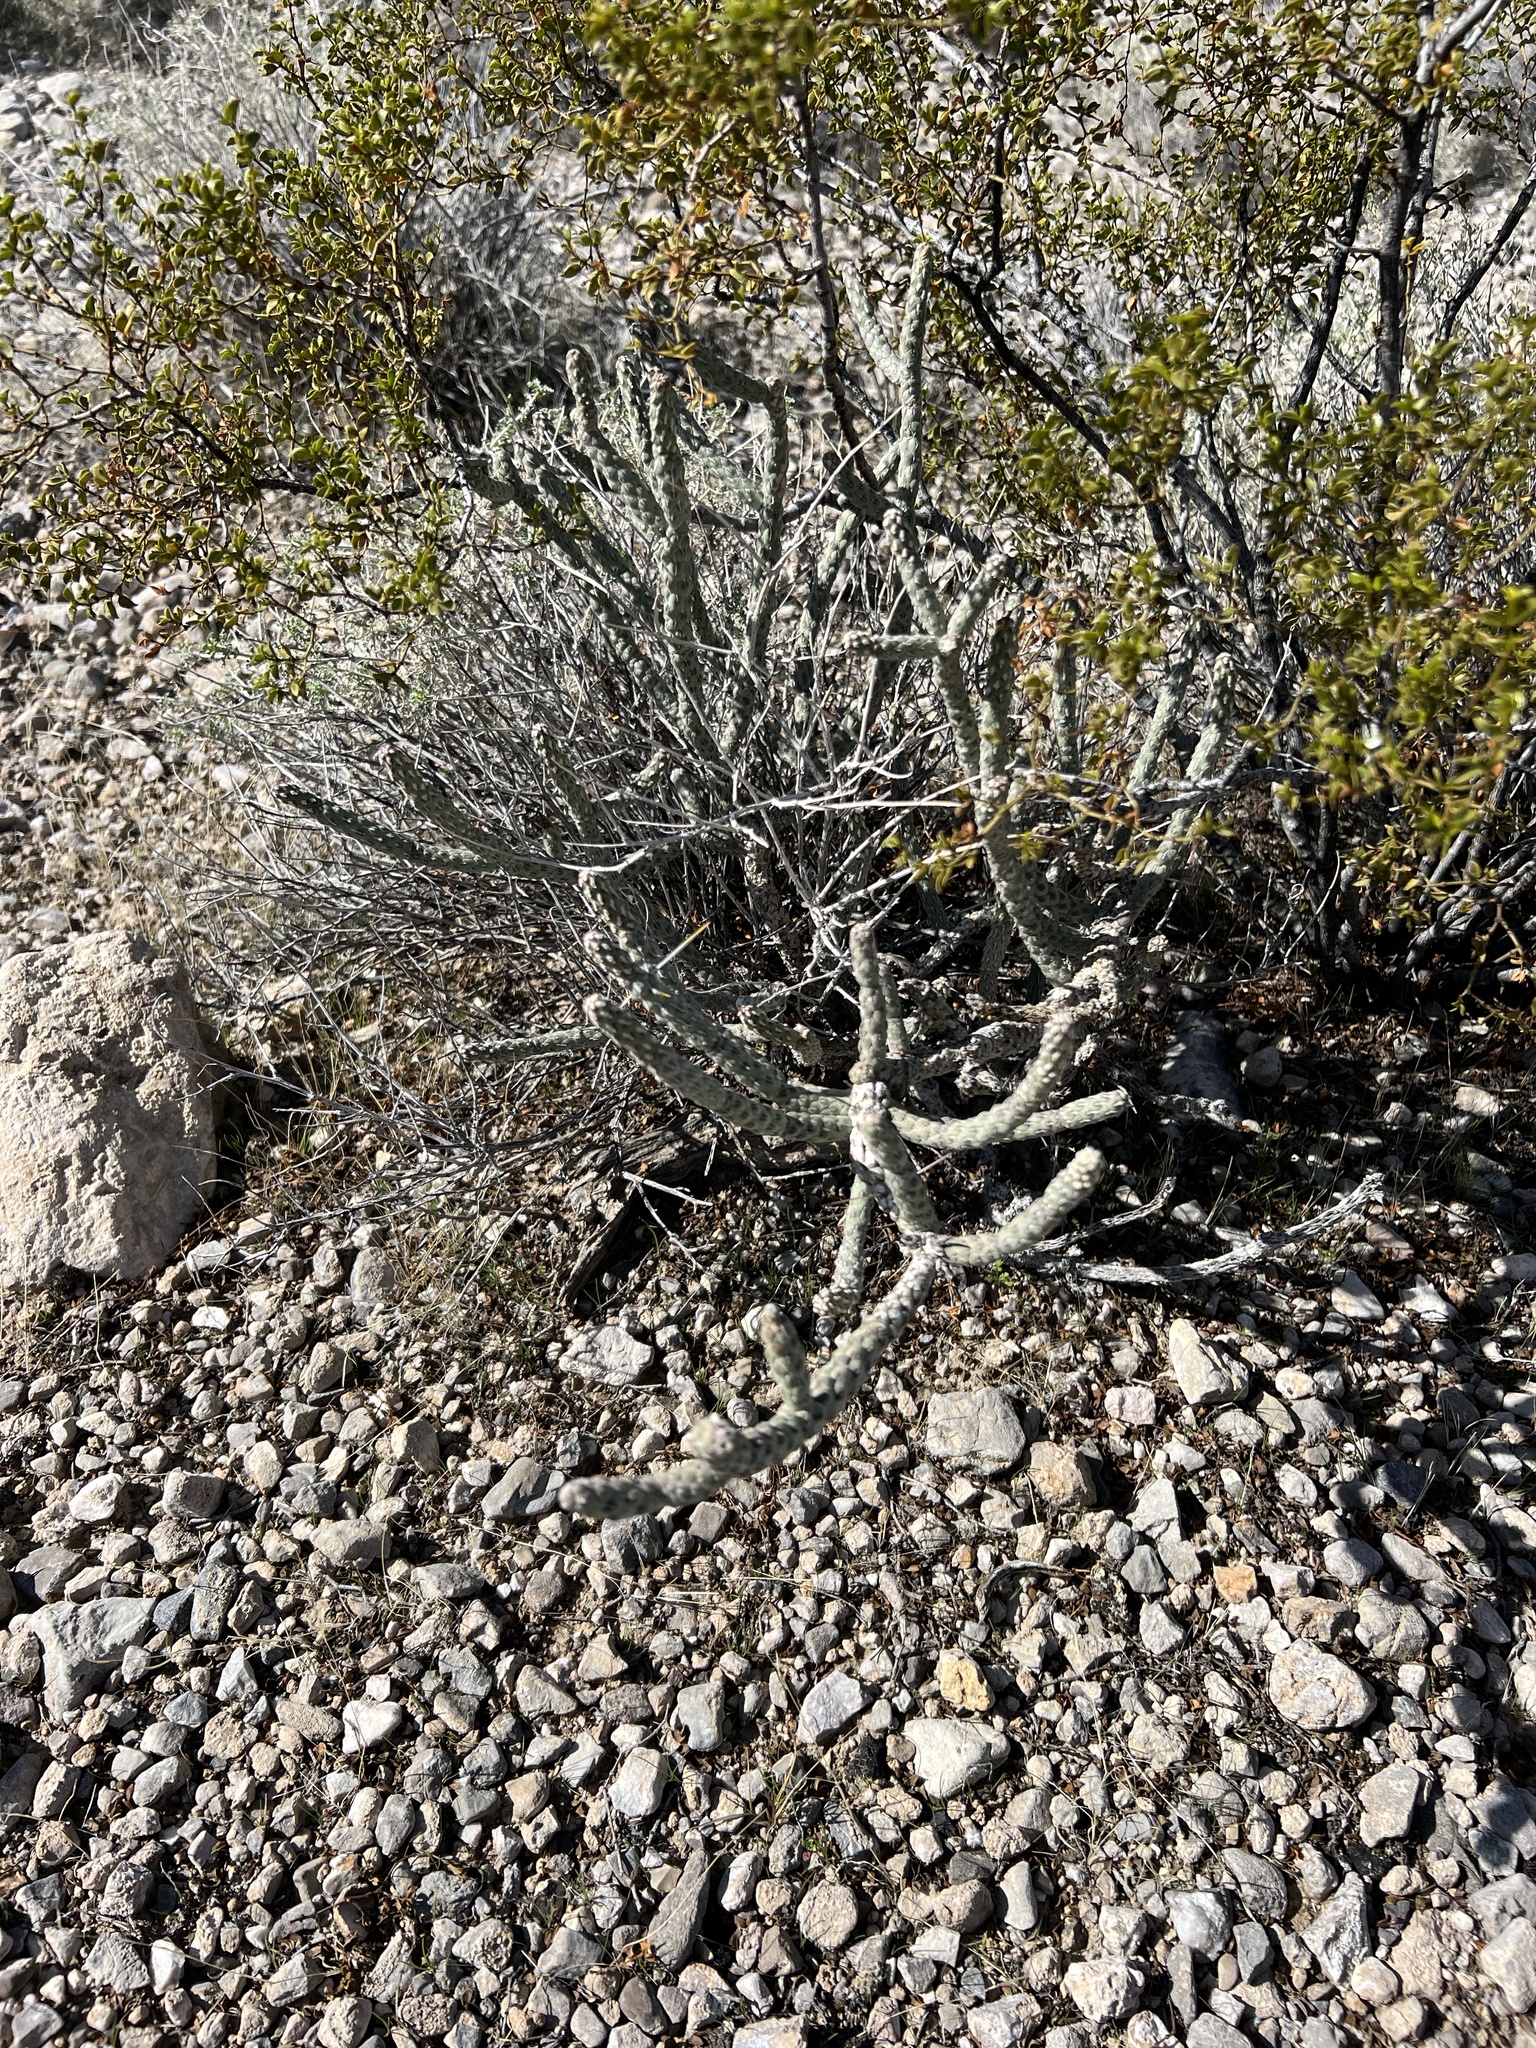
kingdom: Plantae
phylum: Tracheophyta
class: Magnoliopsida
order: Caryophyllales
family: Cactaceae
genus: Cylindropuntia
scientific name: Cylindropuntia ramosissima
